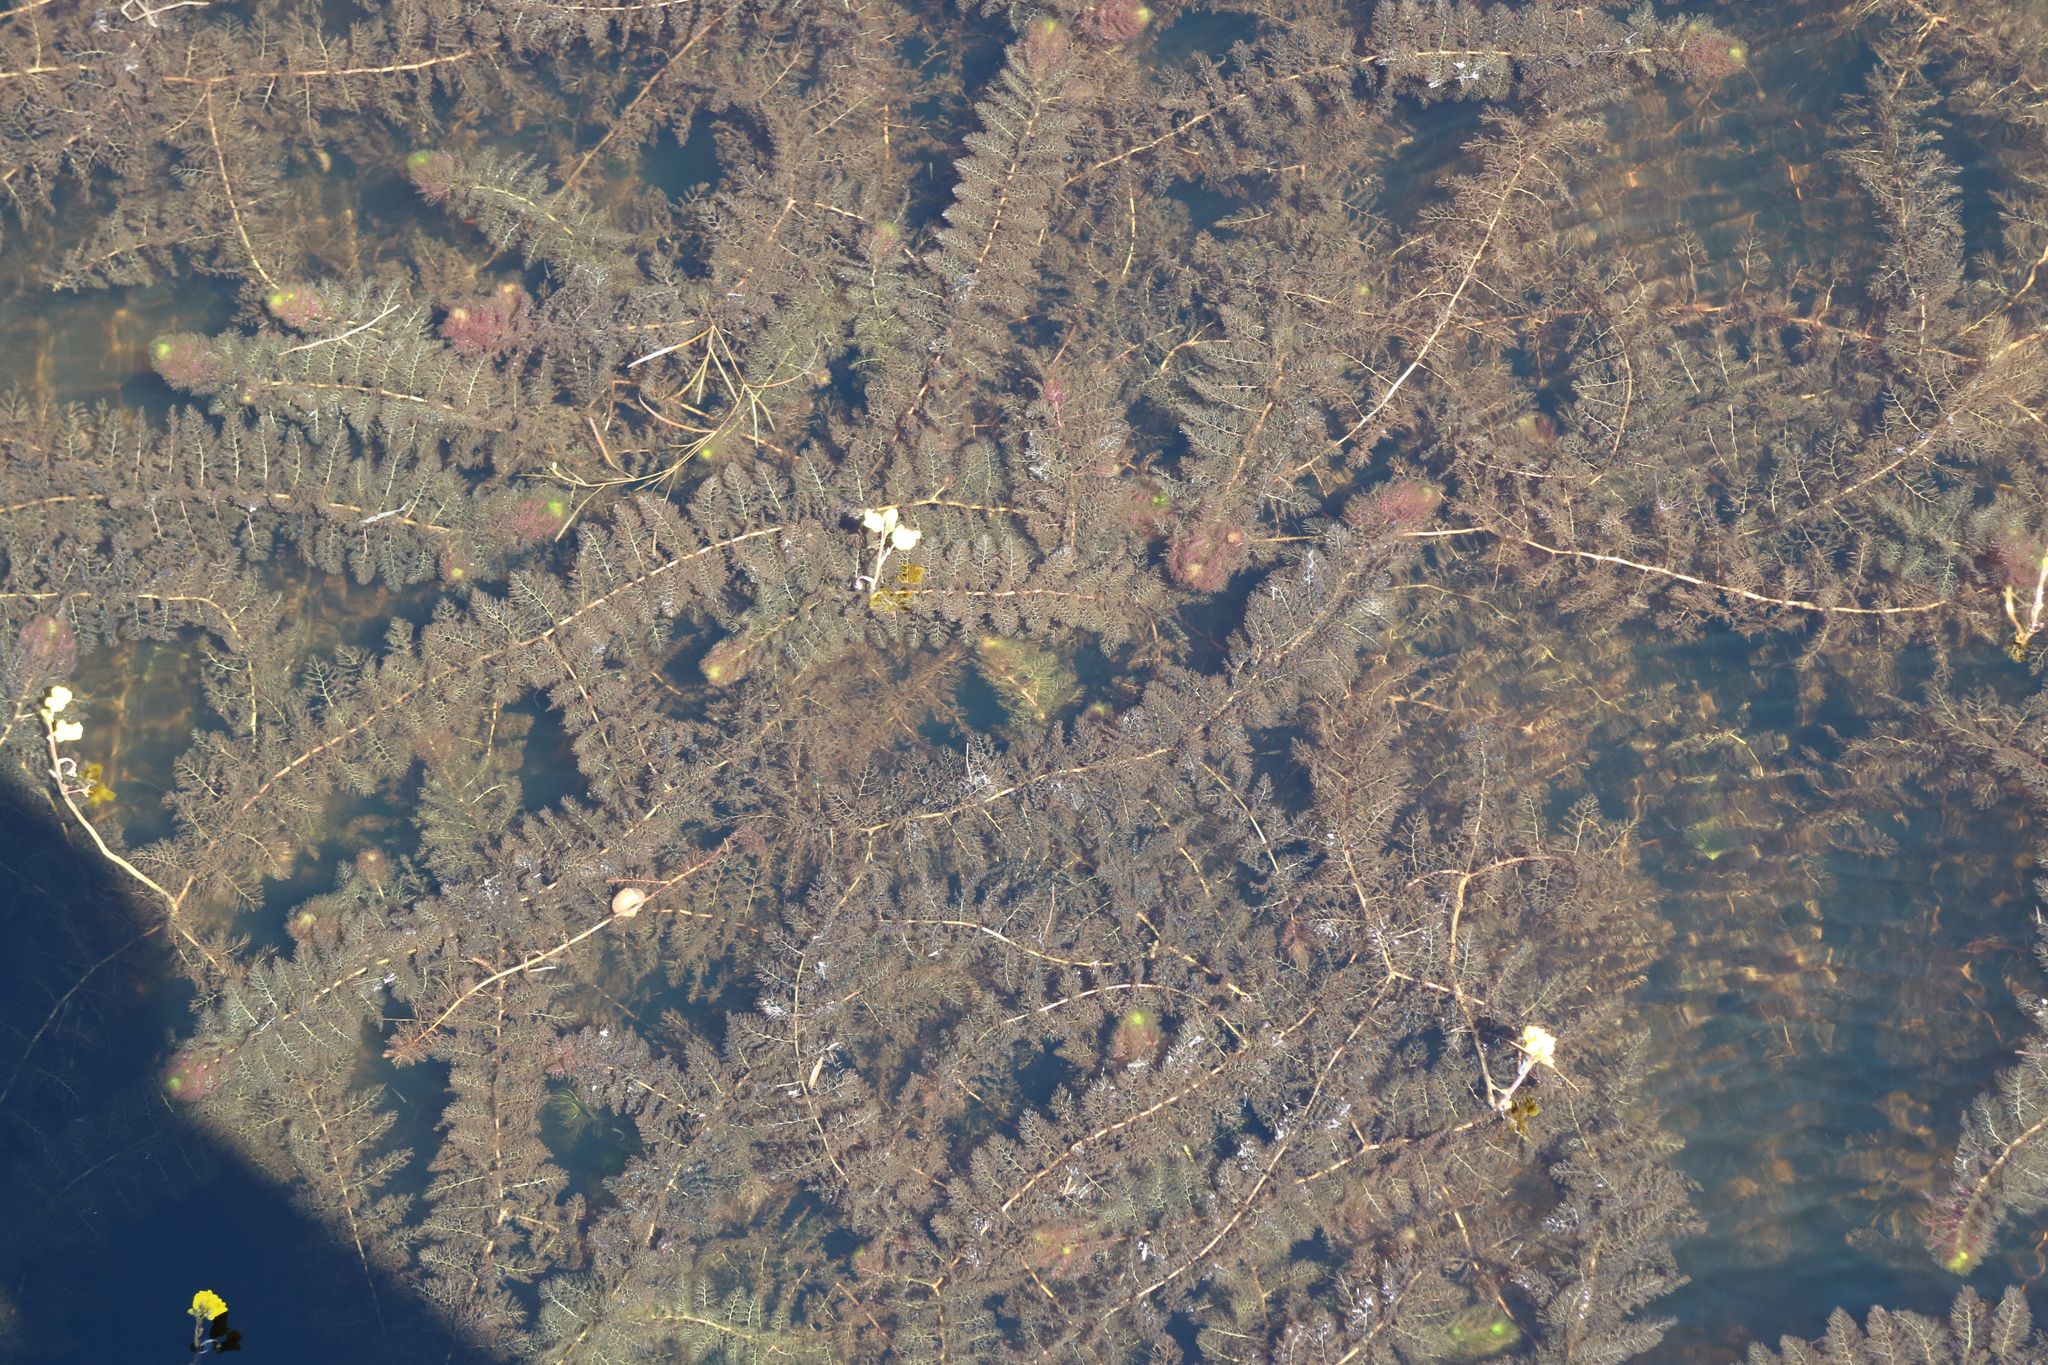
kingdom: Plantae
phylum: Tracheophyta
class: Magnoliopsida
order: Lamiales
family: Lentibulariaceae
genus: Utricularia
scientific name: Utricularia macrorhiza
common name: Common bladderwort
